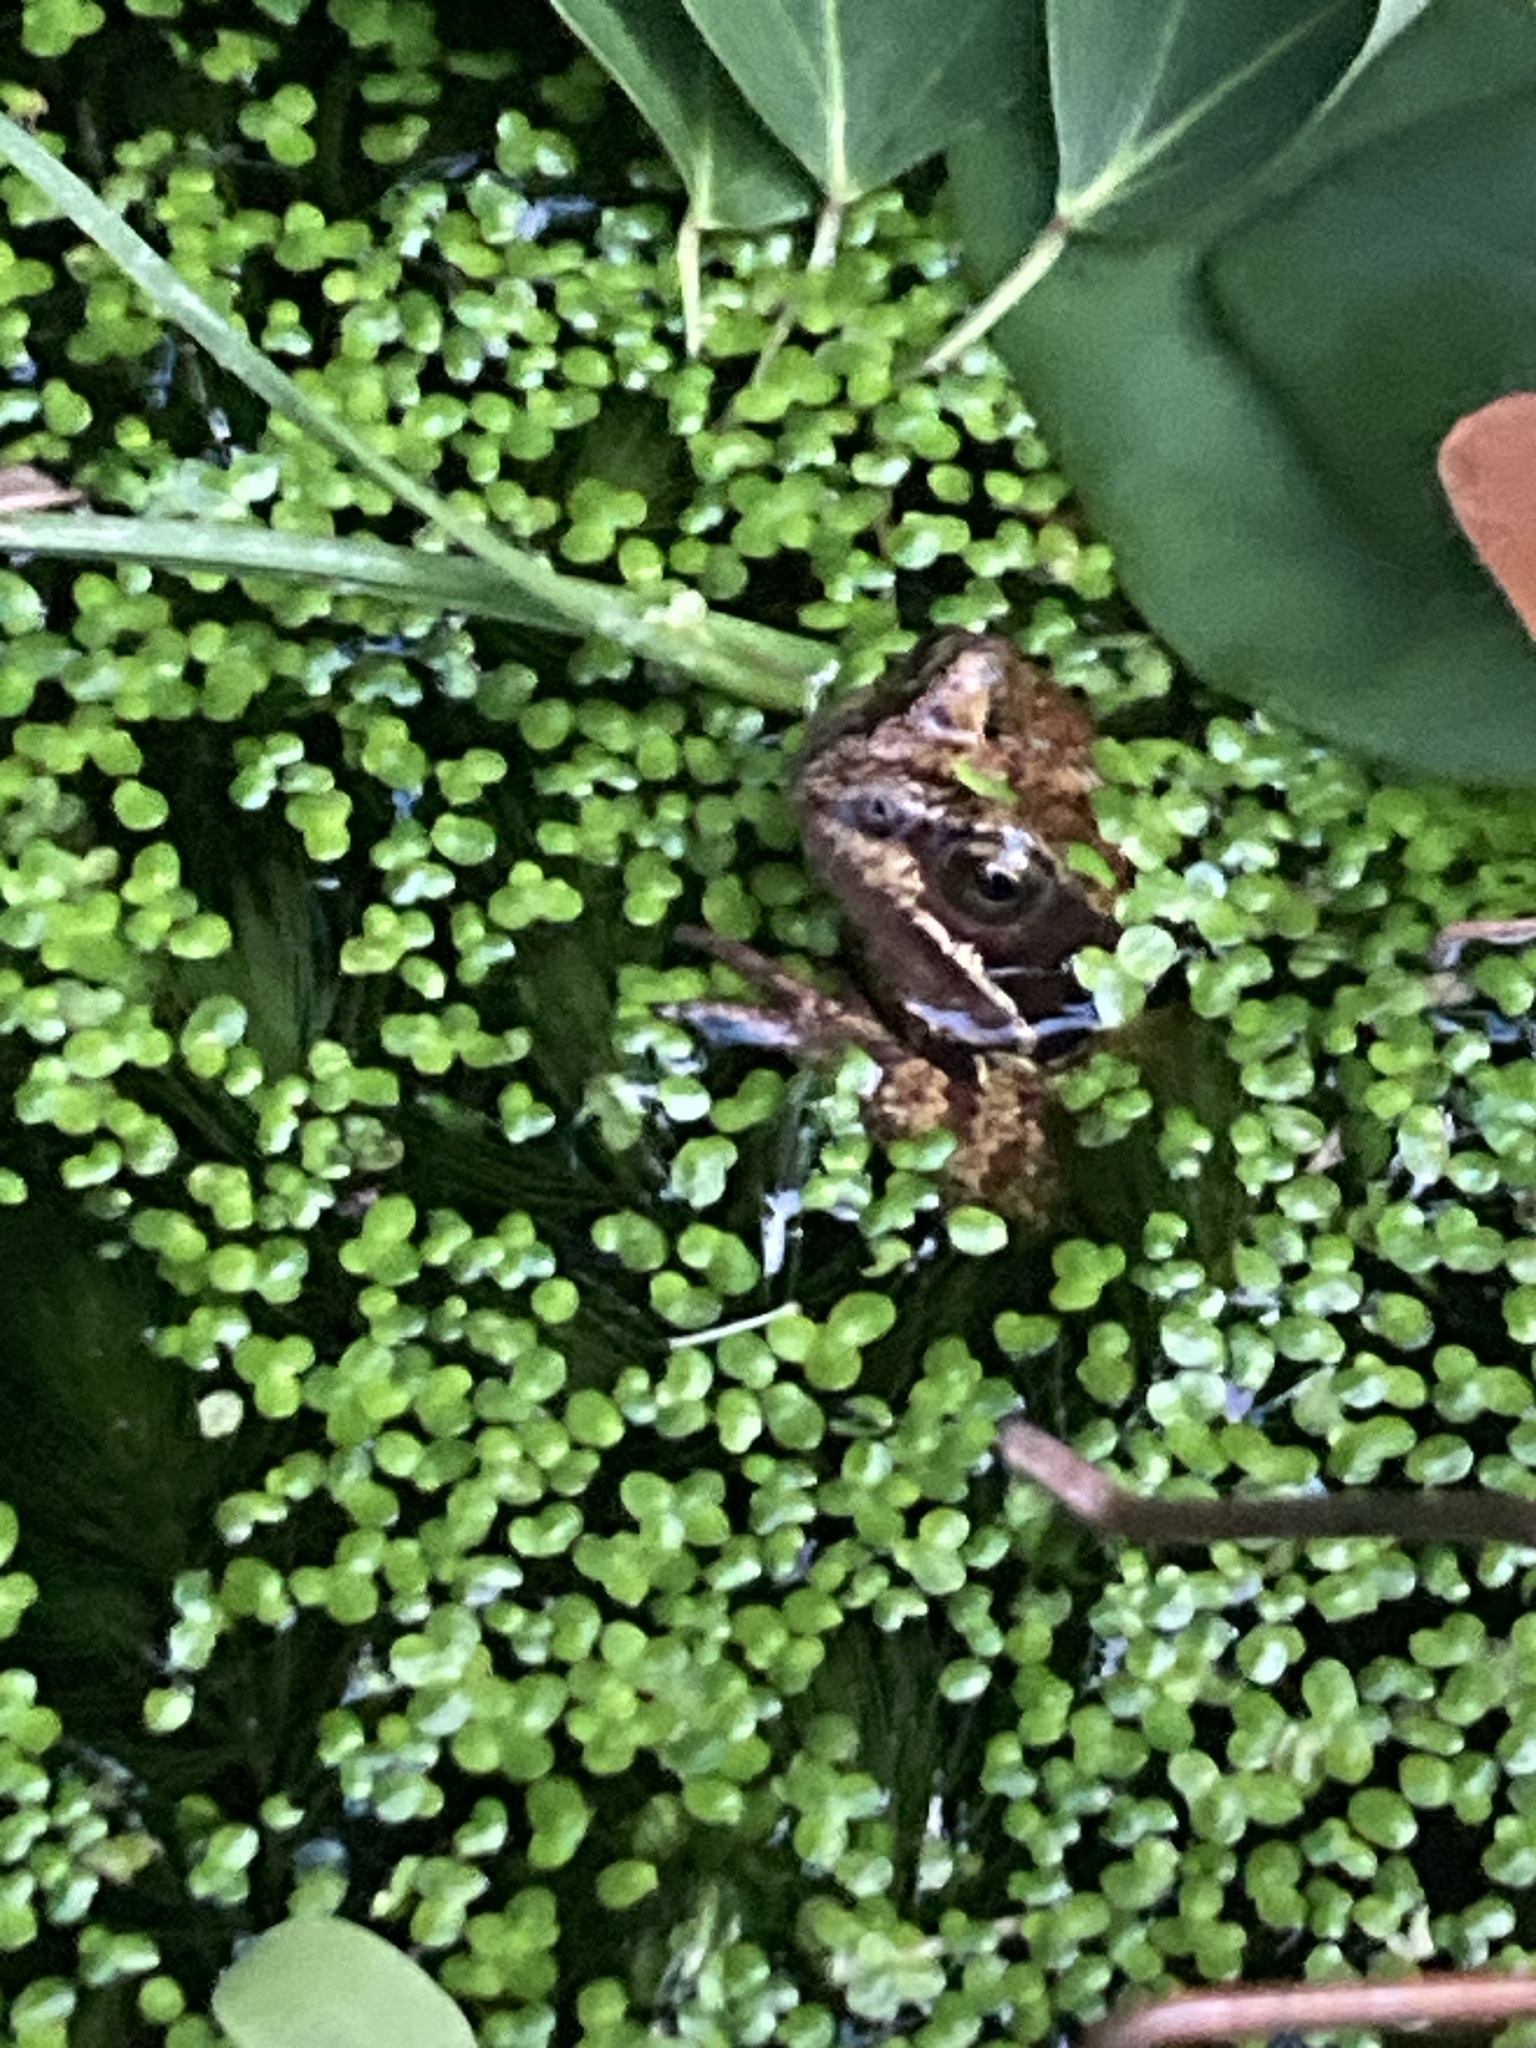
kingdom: Animalia
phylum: Chordata
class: Amphibia
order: Anura
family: Ranidae
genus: Rana
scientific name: Rana temporaria
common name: Common frog
